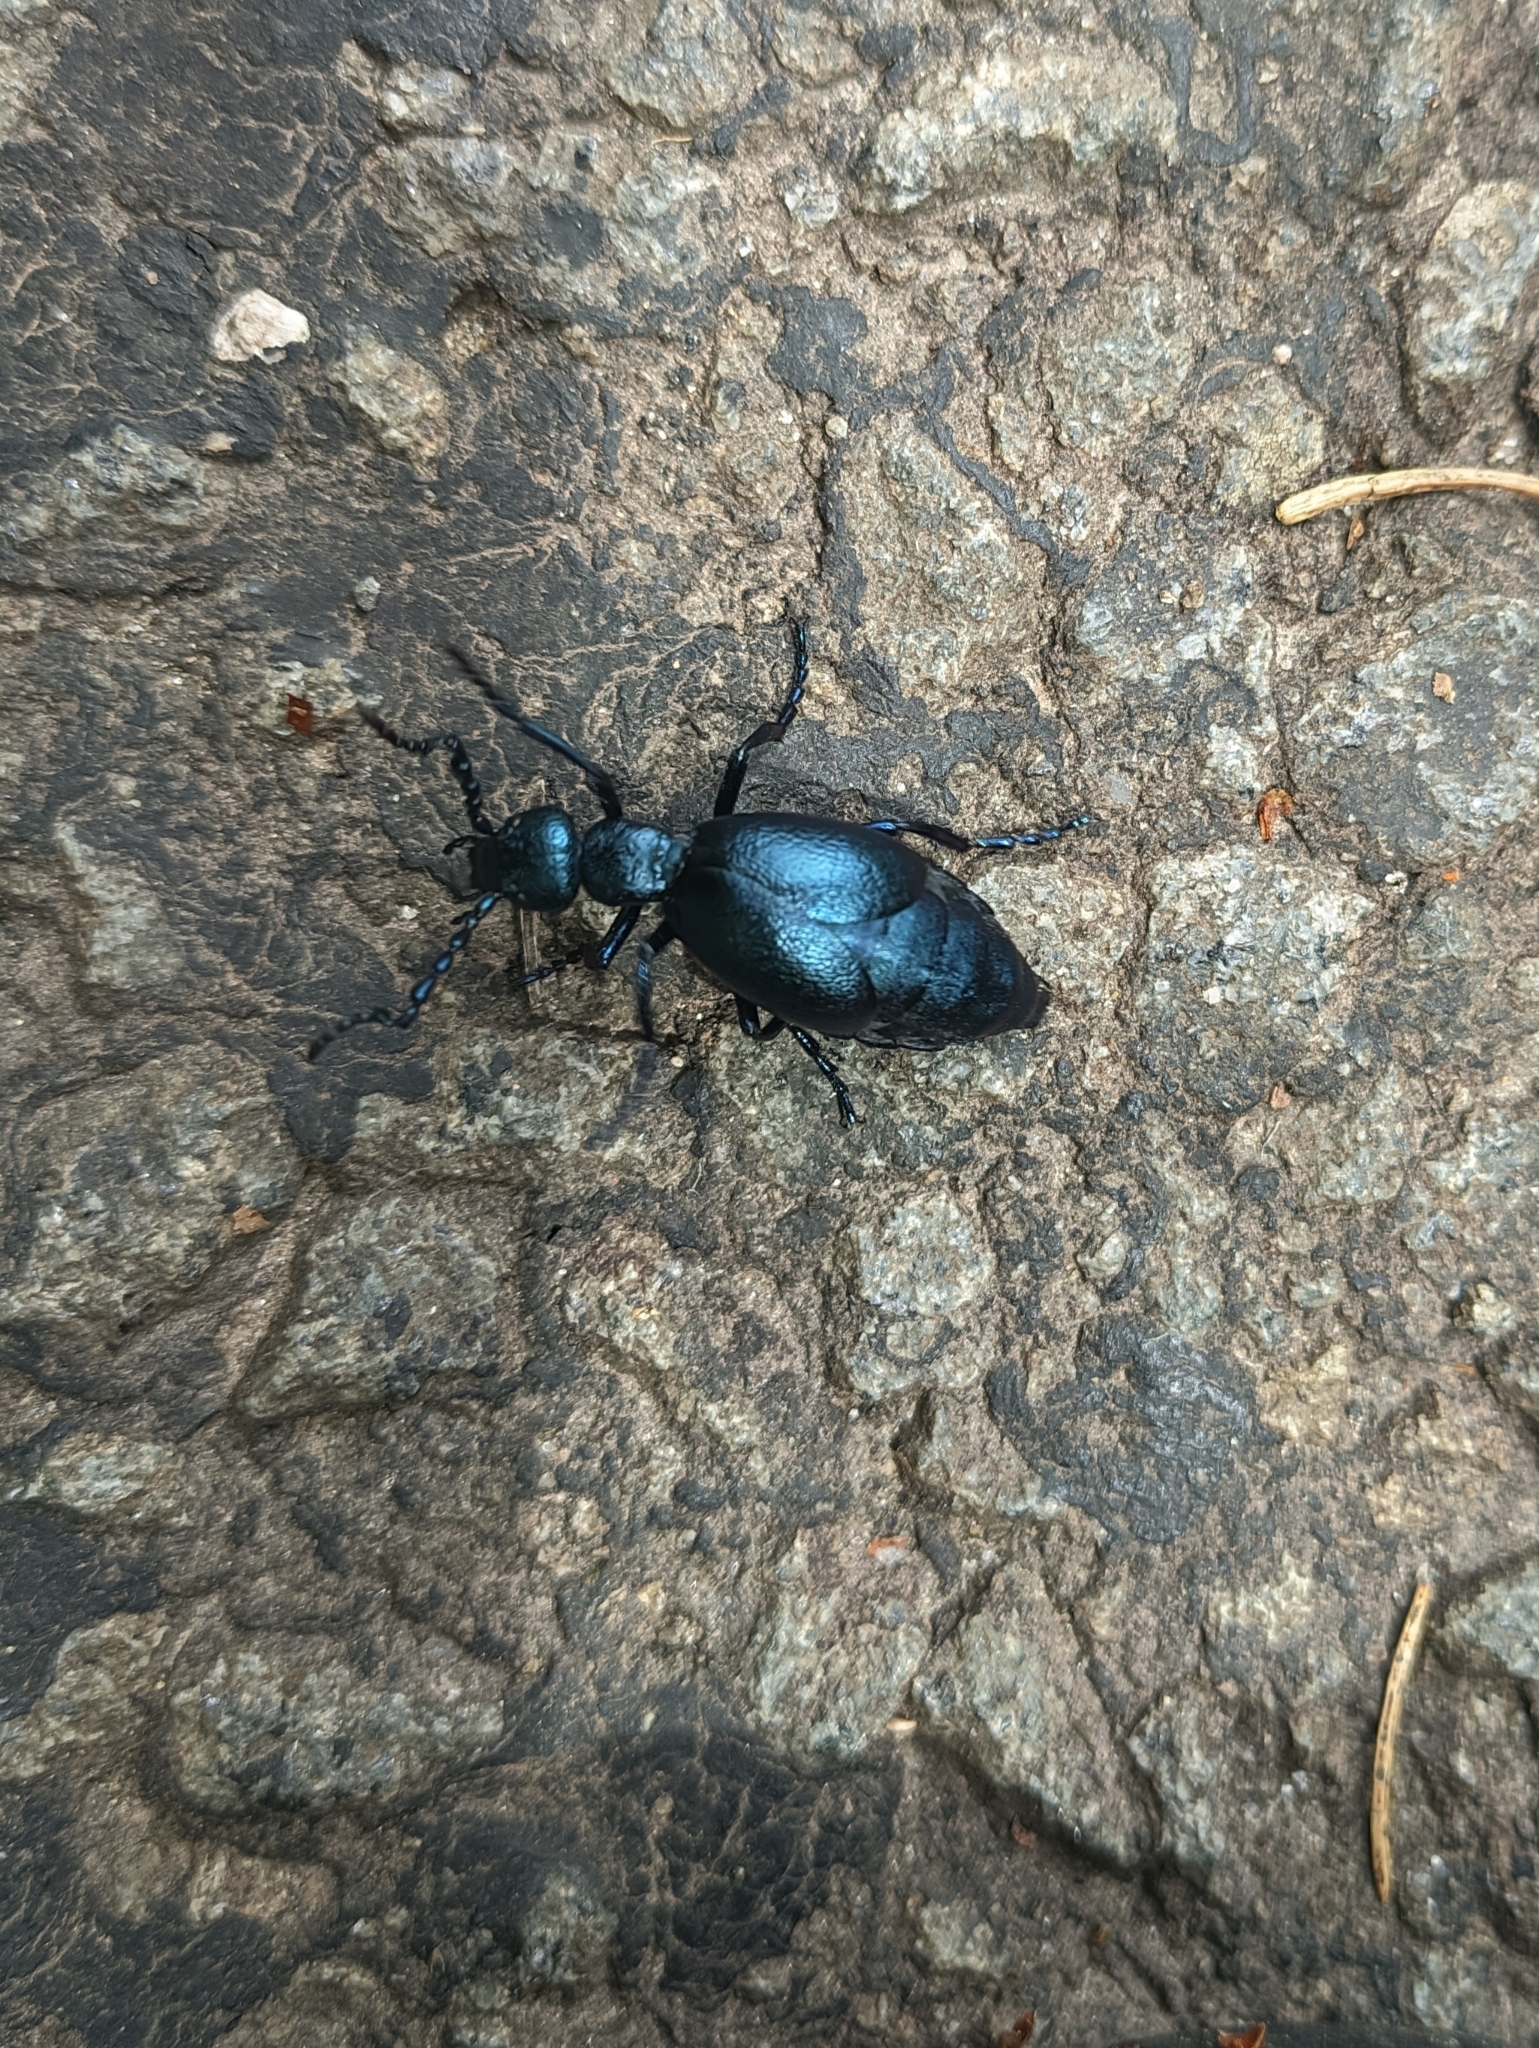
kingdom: Animalia
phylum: Arthropoda
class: Insecta
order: Coleoptera
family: Meloidae
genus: Meloe
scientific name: Meloe violaceus
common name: Violet oil-beetle
